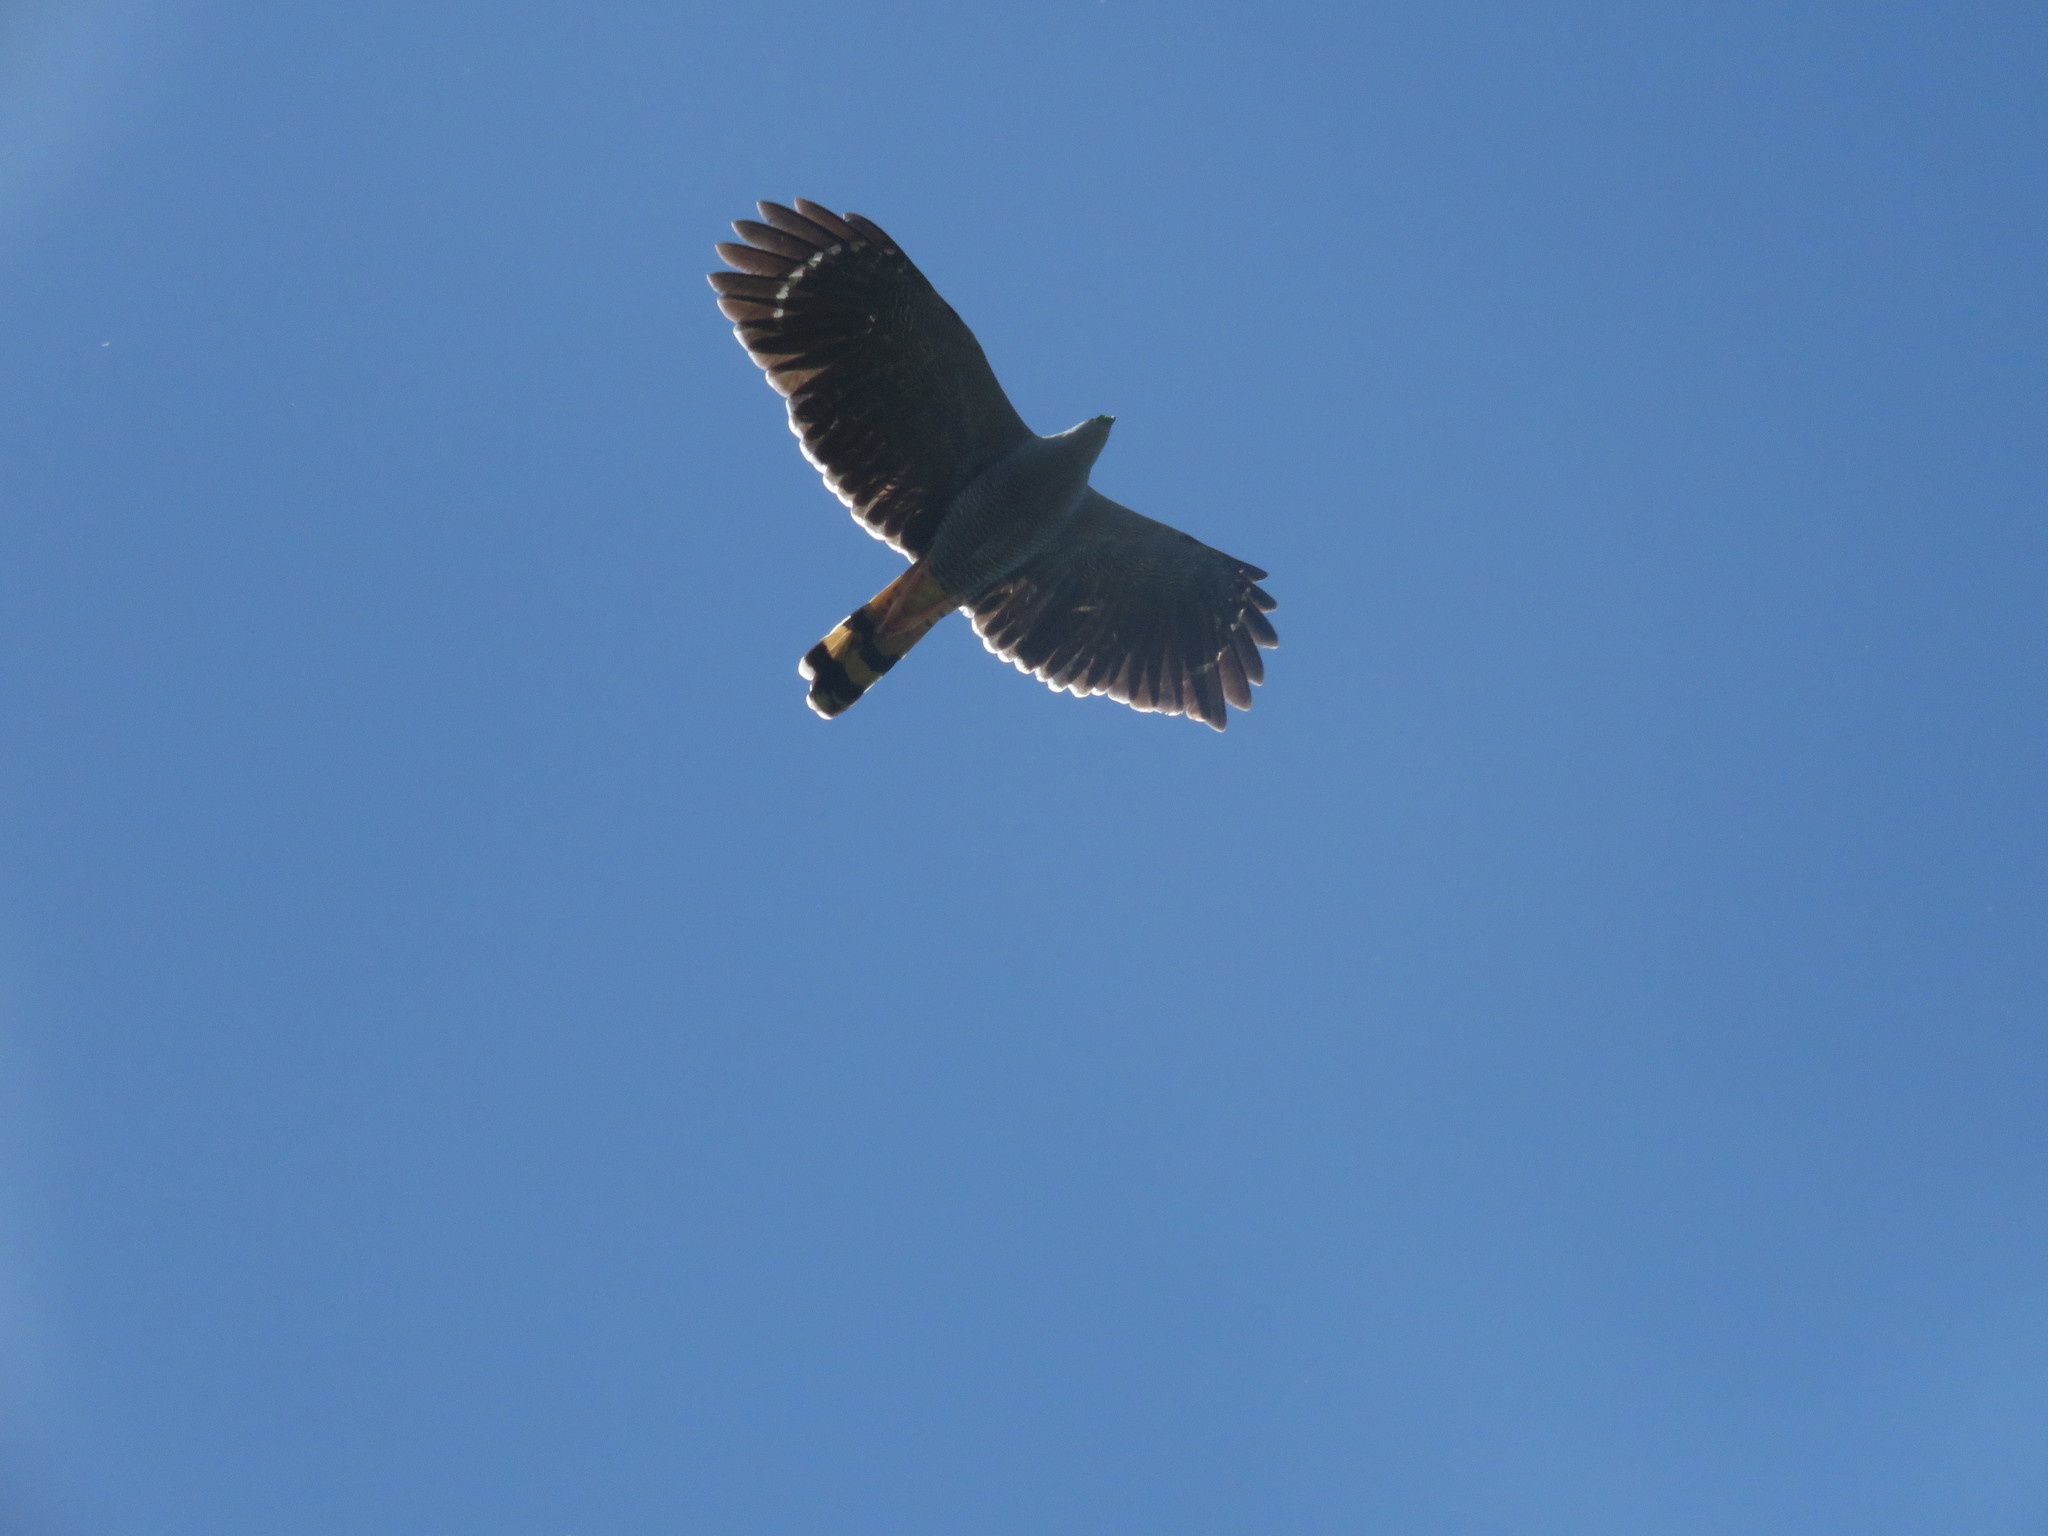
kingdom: Animalia
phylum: Chordata
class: Aves
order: Accipitriformes
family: Accipitridae
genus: Geranospiza
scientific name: Geranospiza caerulescens
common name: Crane hawk
